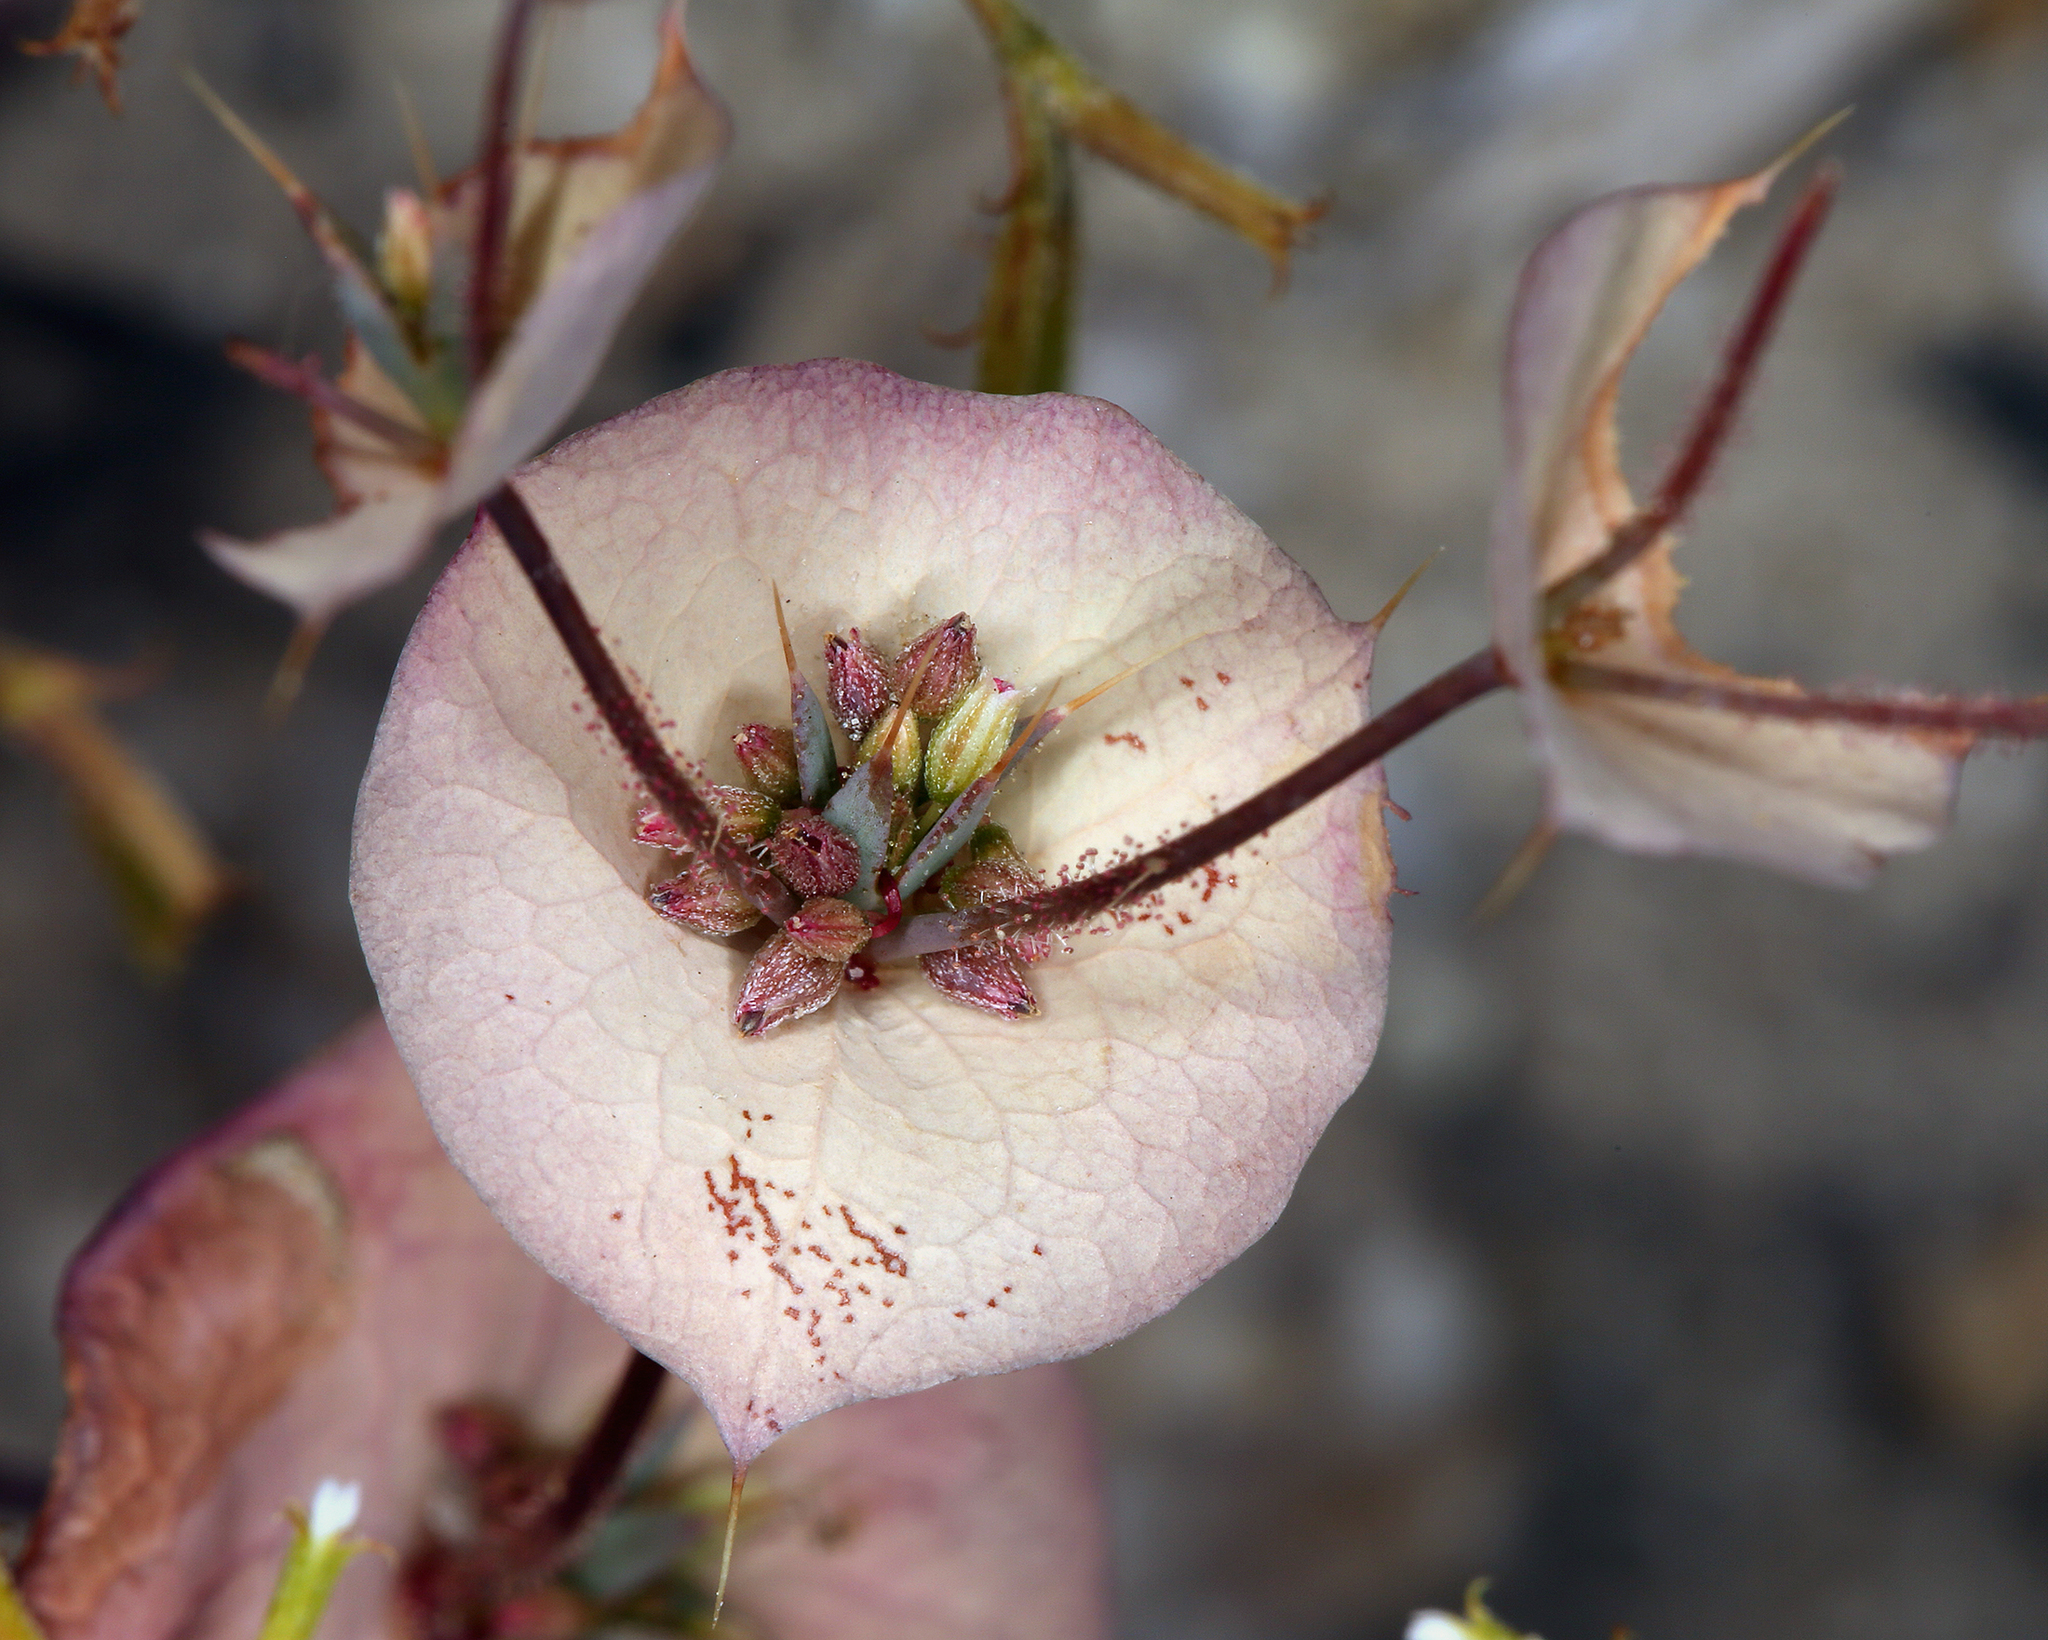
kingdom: Plantae
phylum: Tracheophyta
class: Magnoliopsida
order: Caryophyllales
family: Polygonaceae
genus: Oxytheca
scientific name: Oxytheca perfoliata
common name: Round-leaf puncturebract
